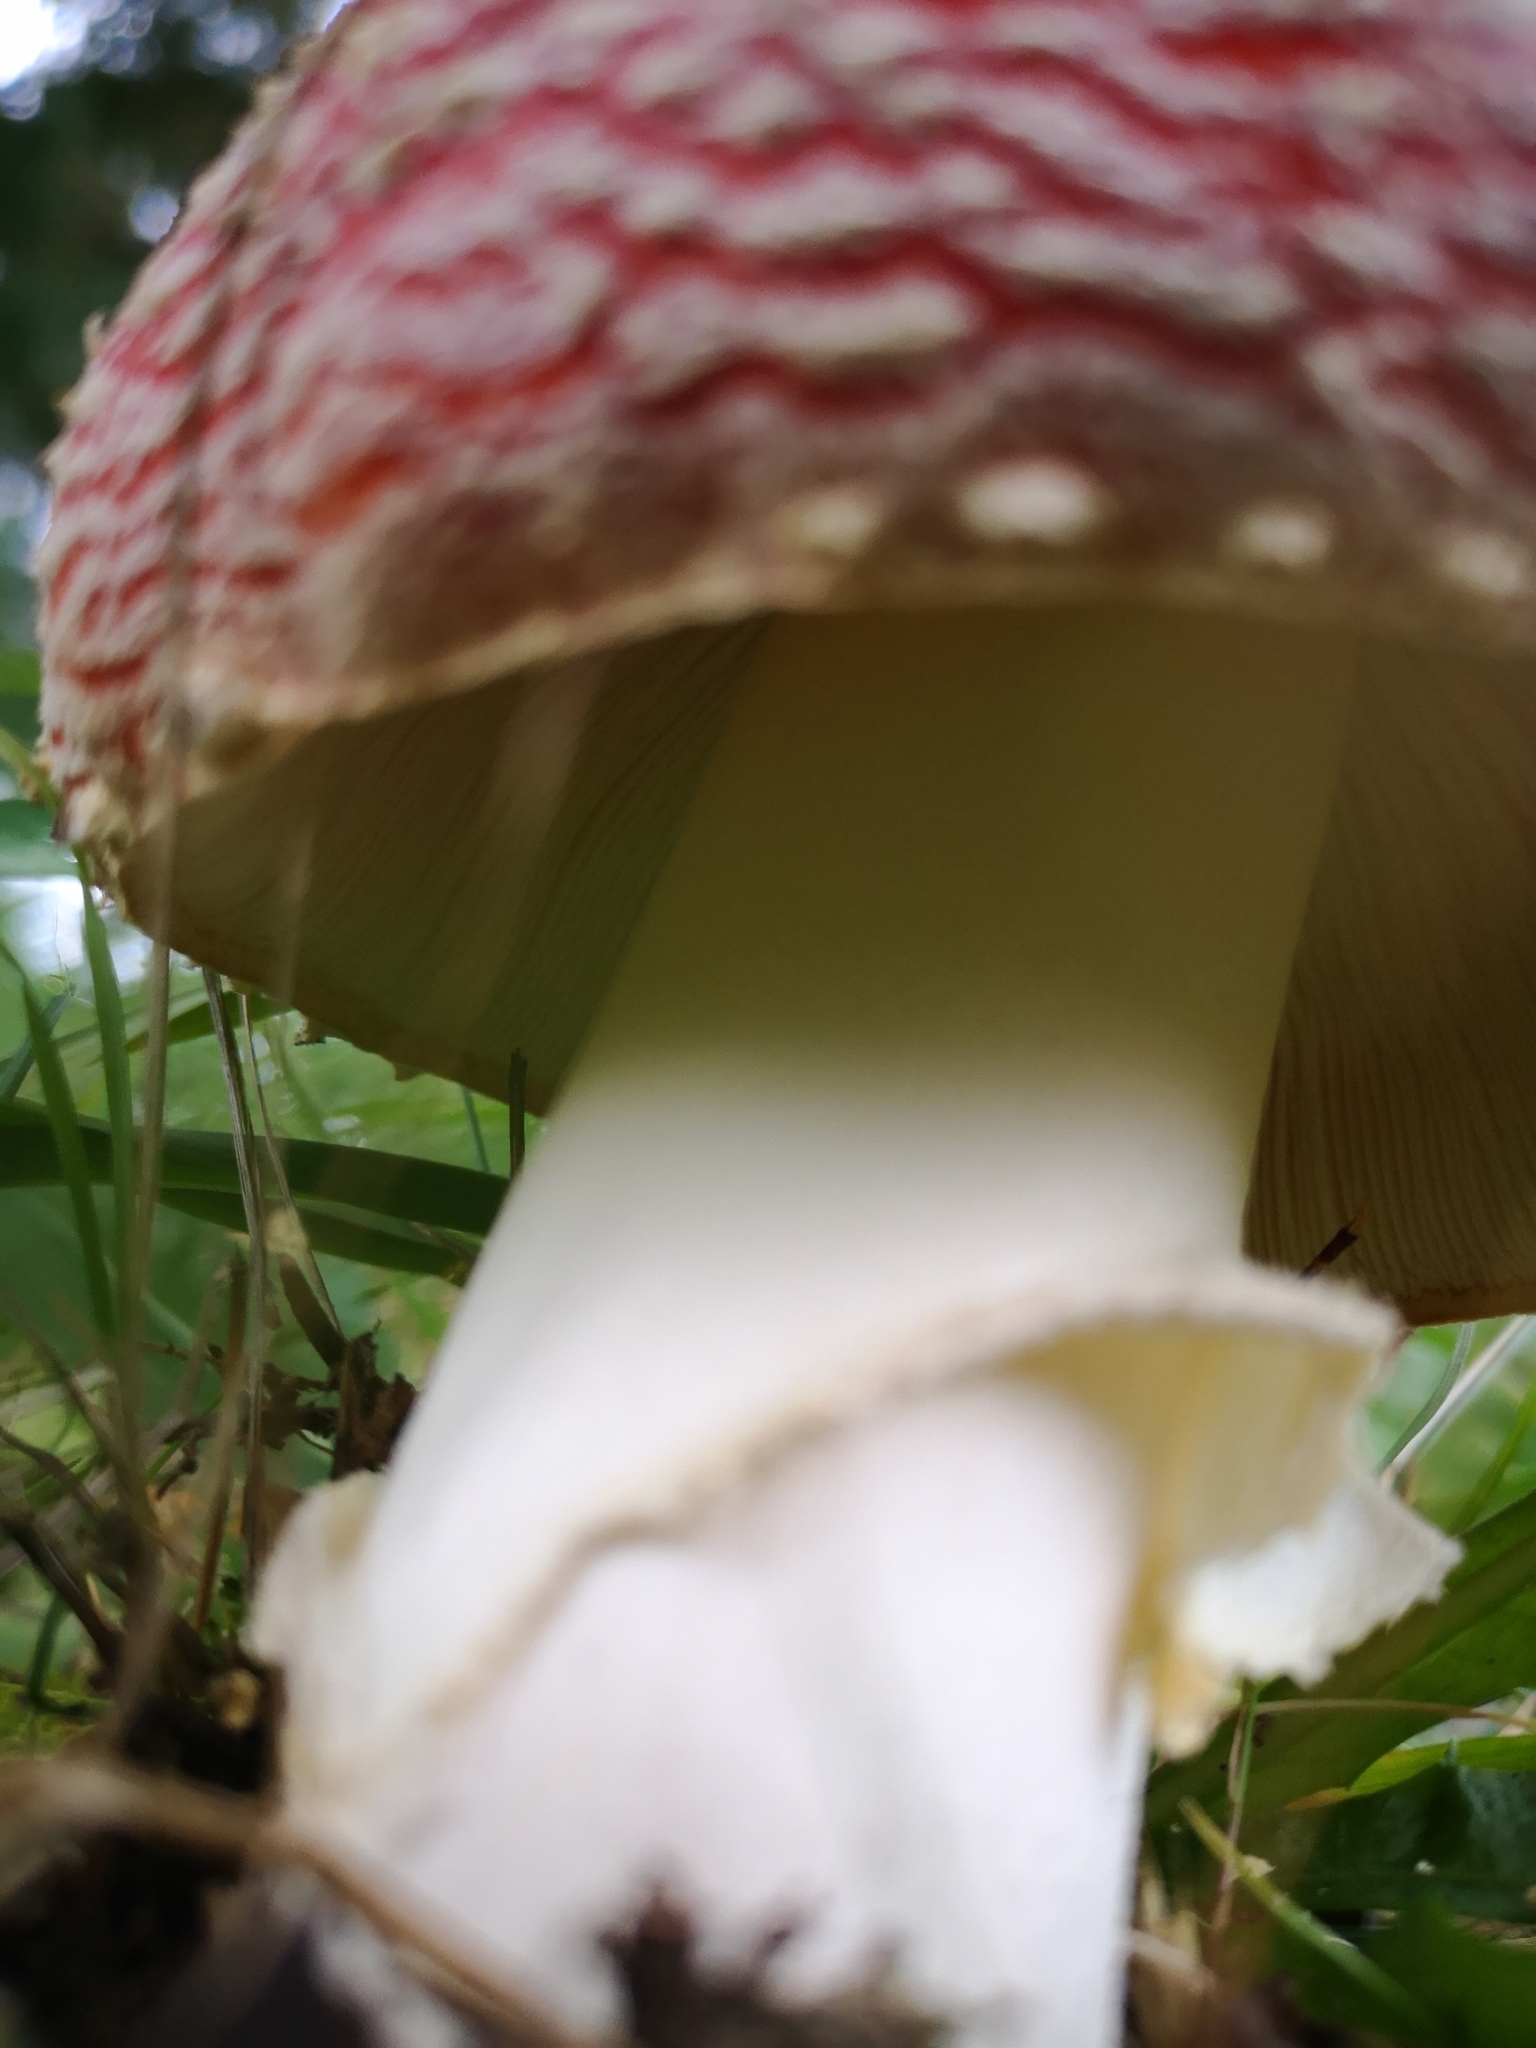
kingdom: Fungi
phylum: Basidiomycota
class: Agaricomycetes
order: Agaricales
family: Amanitaceae
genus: Amanita
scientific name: Amanita muscaria
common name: Fly agaric
